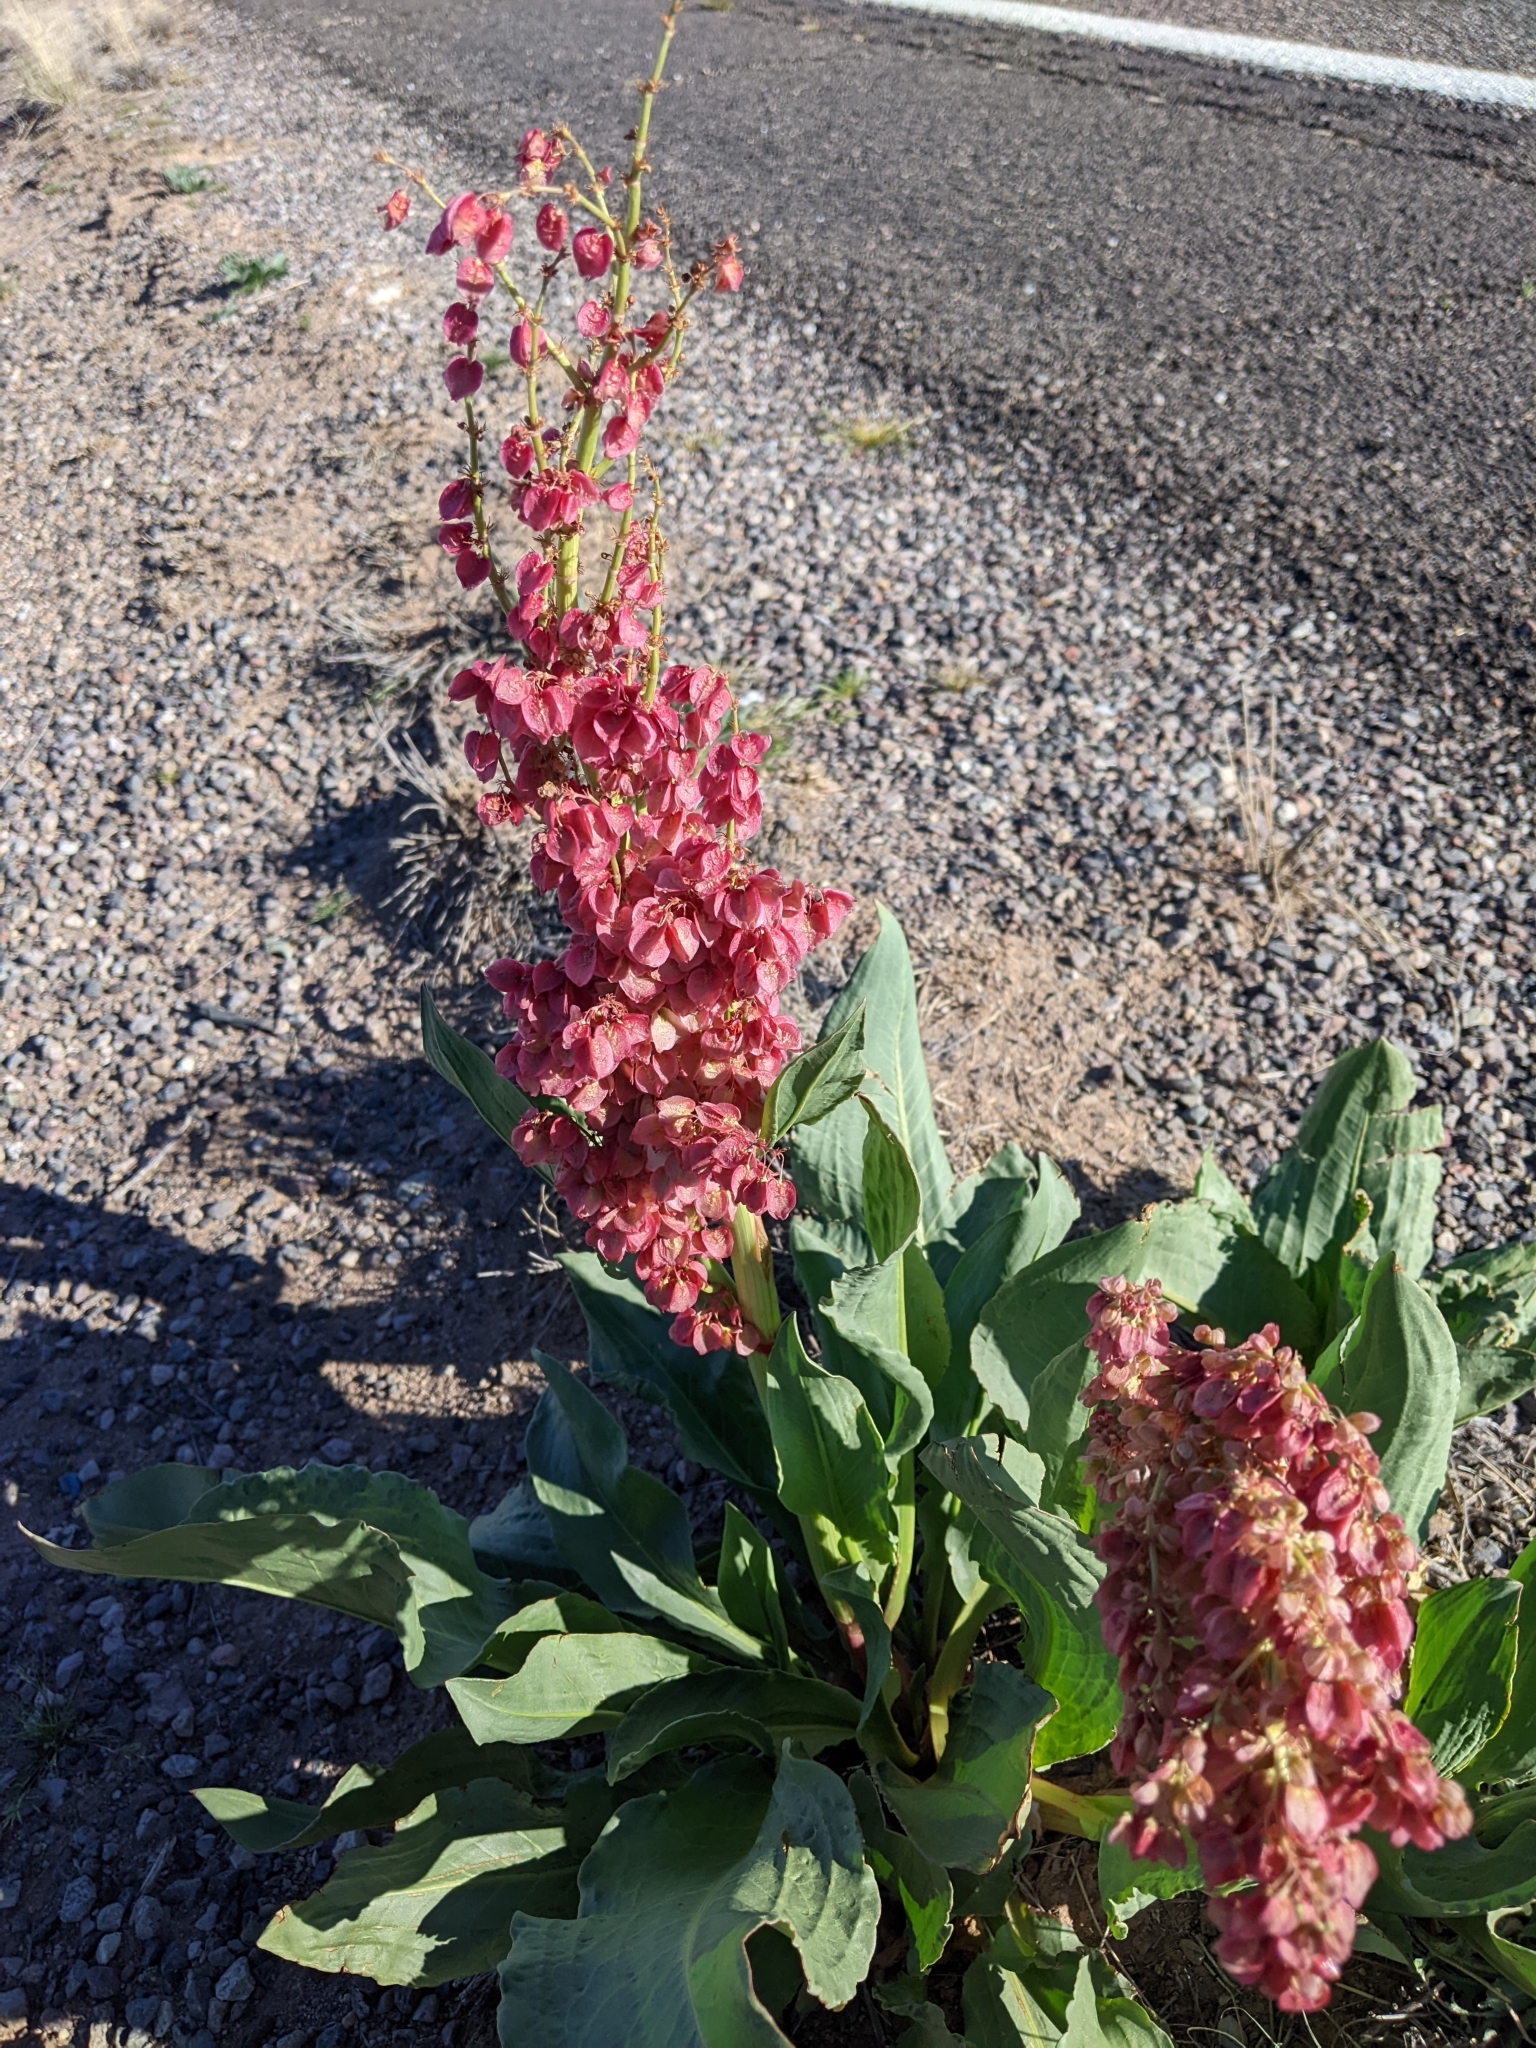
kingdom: Plantae
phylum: Tracheophyta
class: Magnoliopsida
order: Caryophyllales
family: Polygonaceae
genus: Rumex
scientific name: Rumex hymenosepalus
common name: Ganagra
